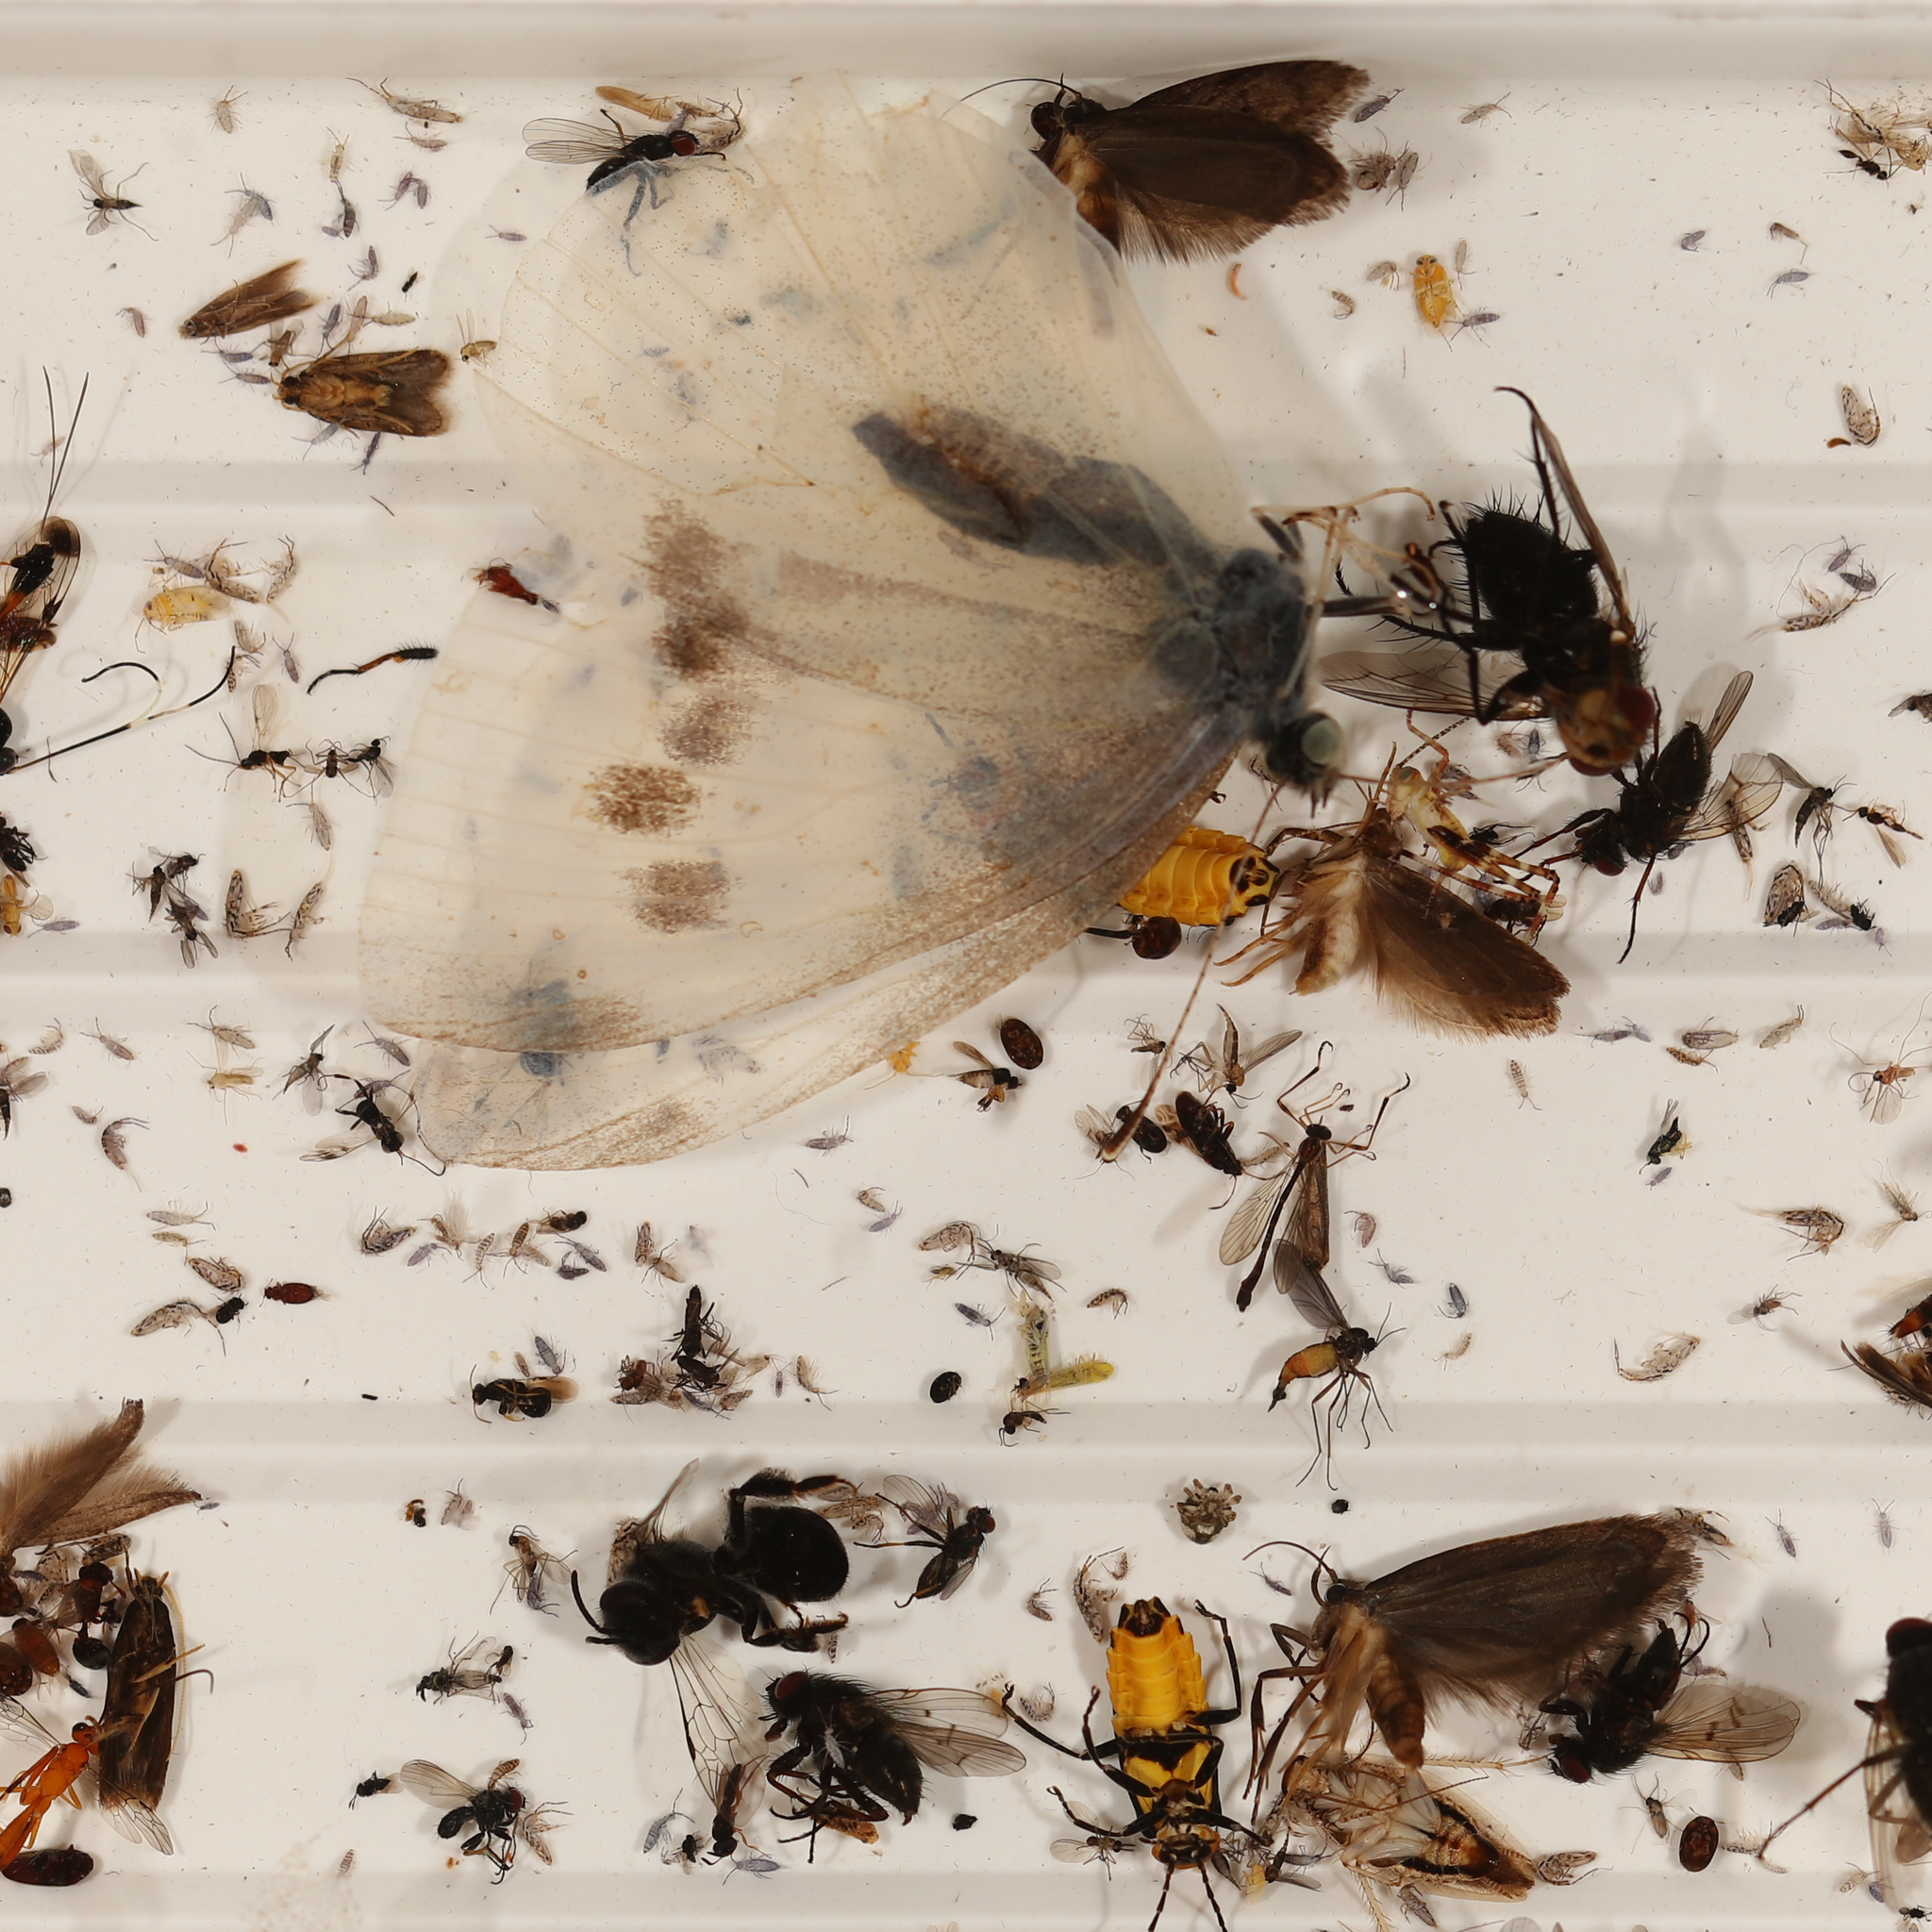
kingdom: Animalia
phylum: Arthropoda
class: Insecta
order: Lepidoptera
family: Pieridae
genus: Pieris
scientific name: Pieris rapae
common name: Small white
